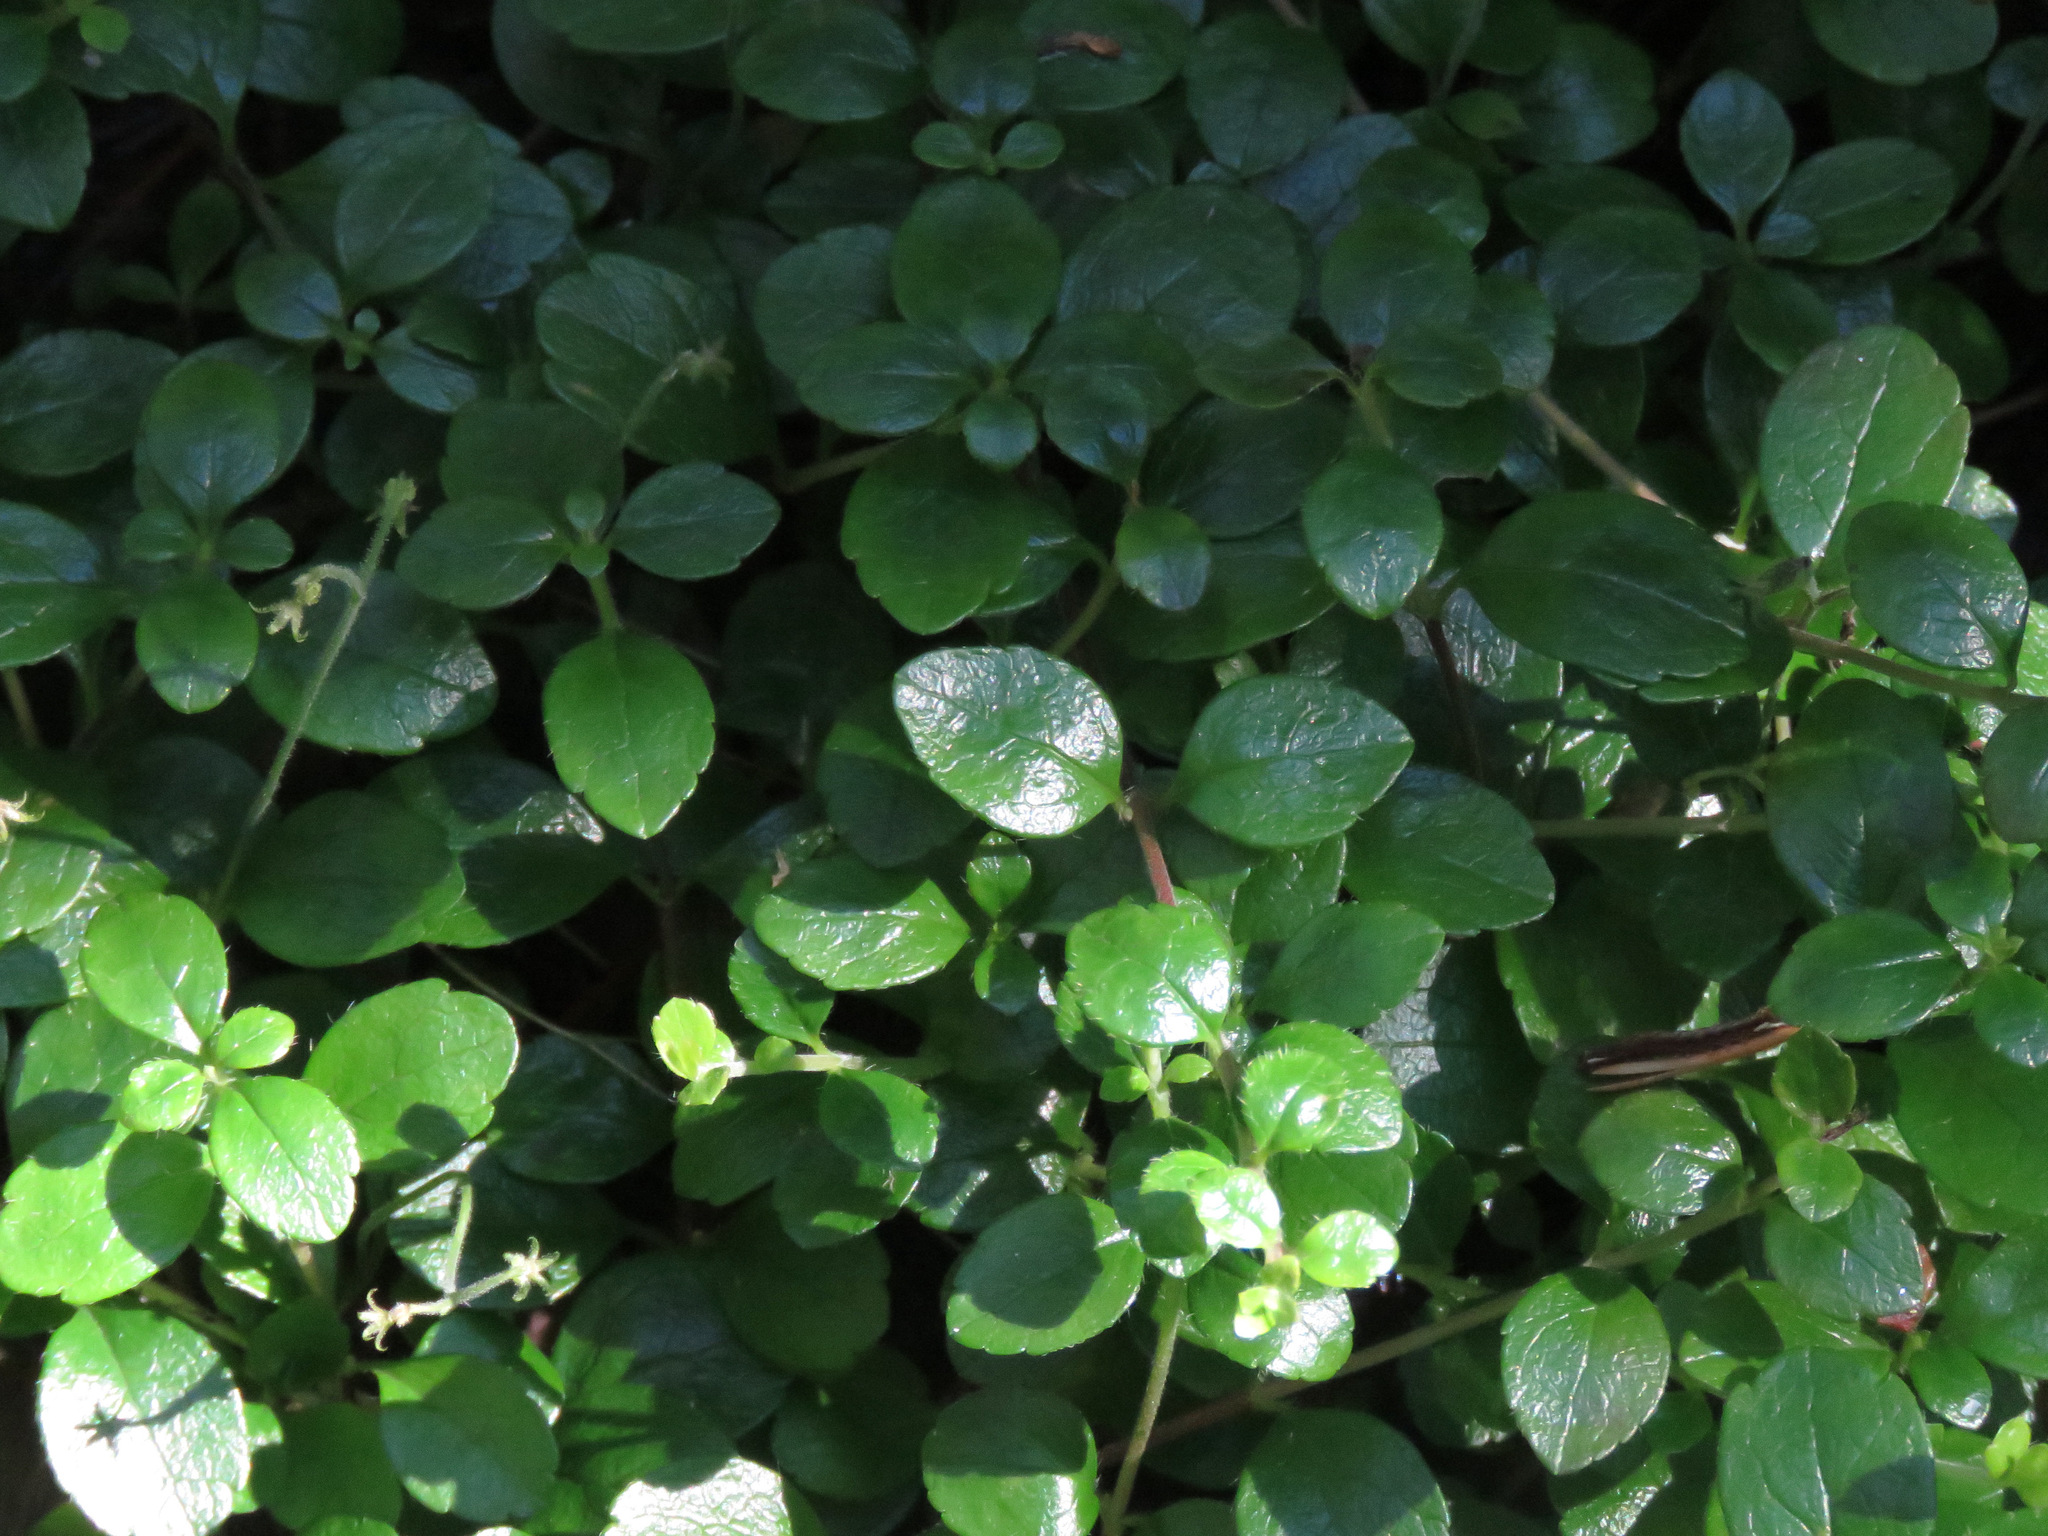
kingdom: Plantae
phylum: Tracheophyta
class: Magnoliopsida
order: Dipsacales
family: Caprifoliaceae
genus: Linnaea
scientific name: Linnaea borealis
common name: Twinflower
